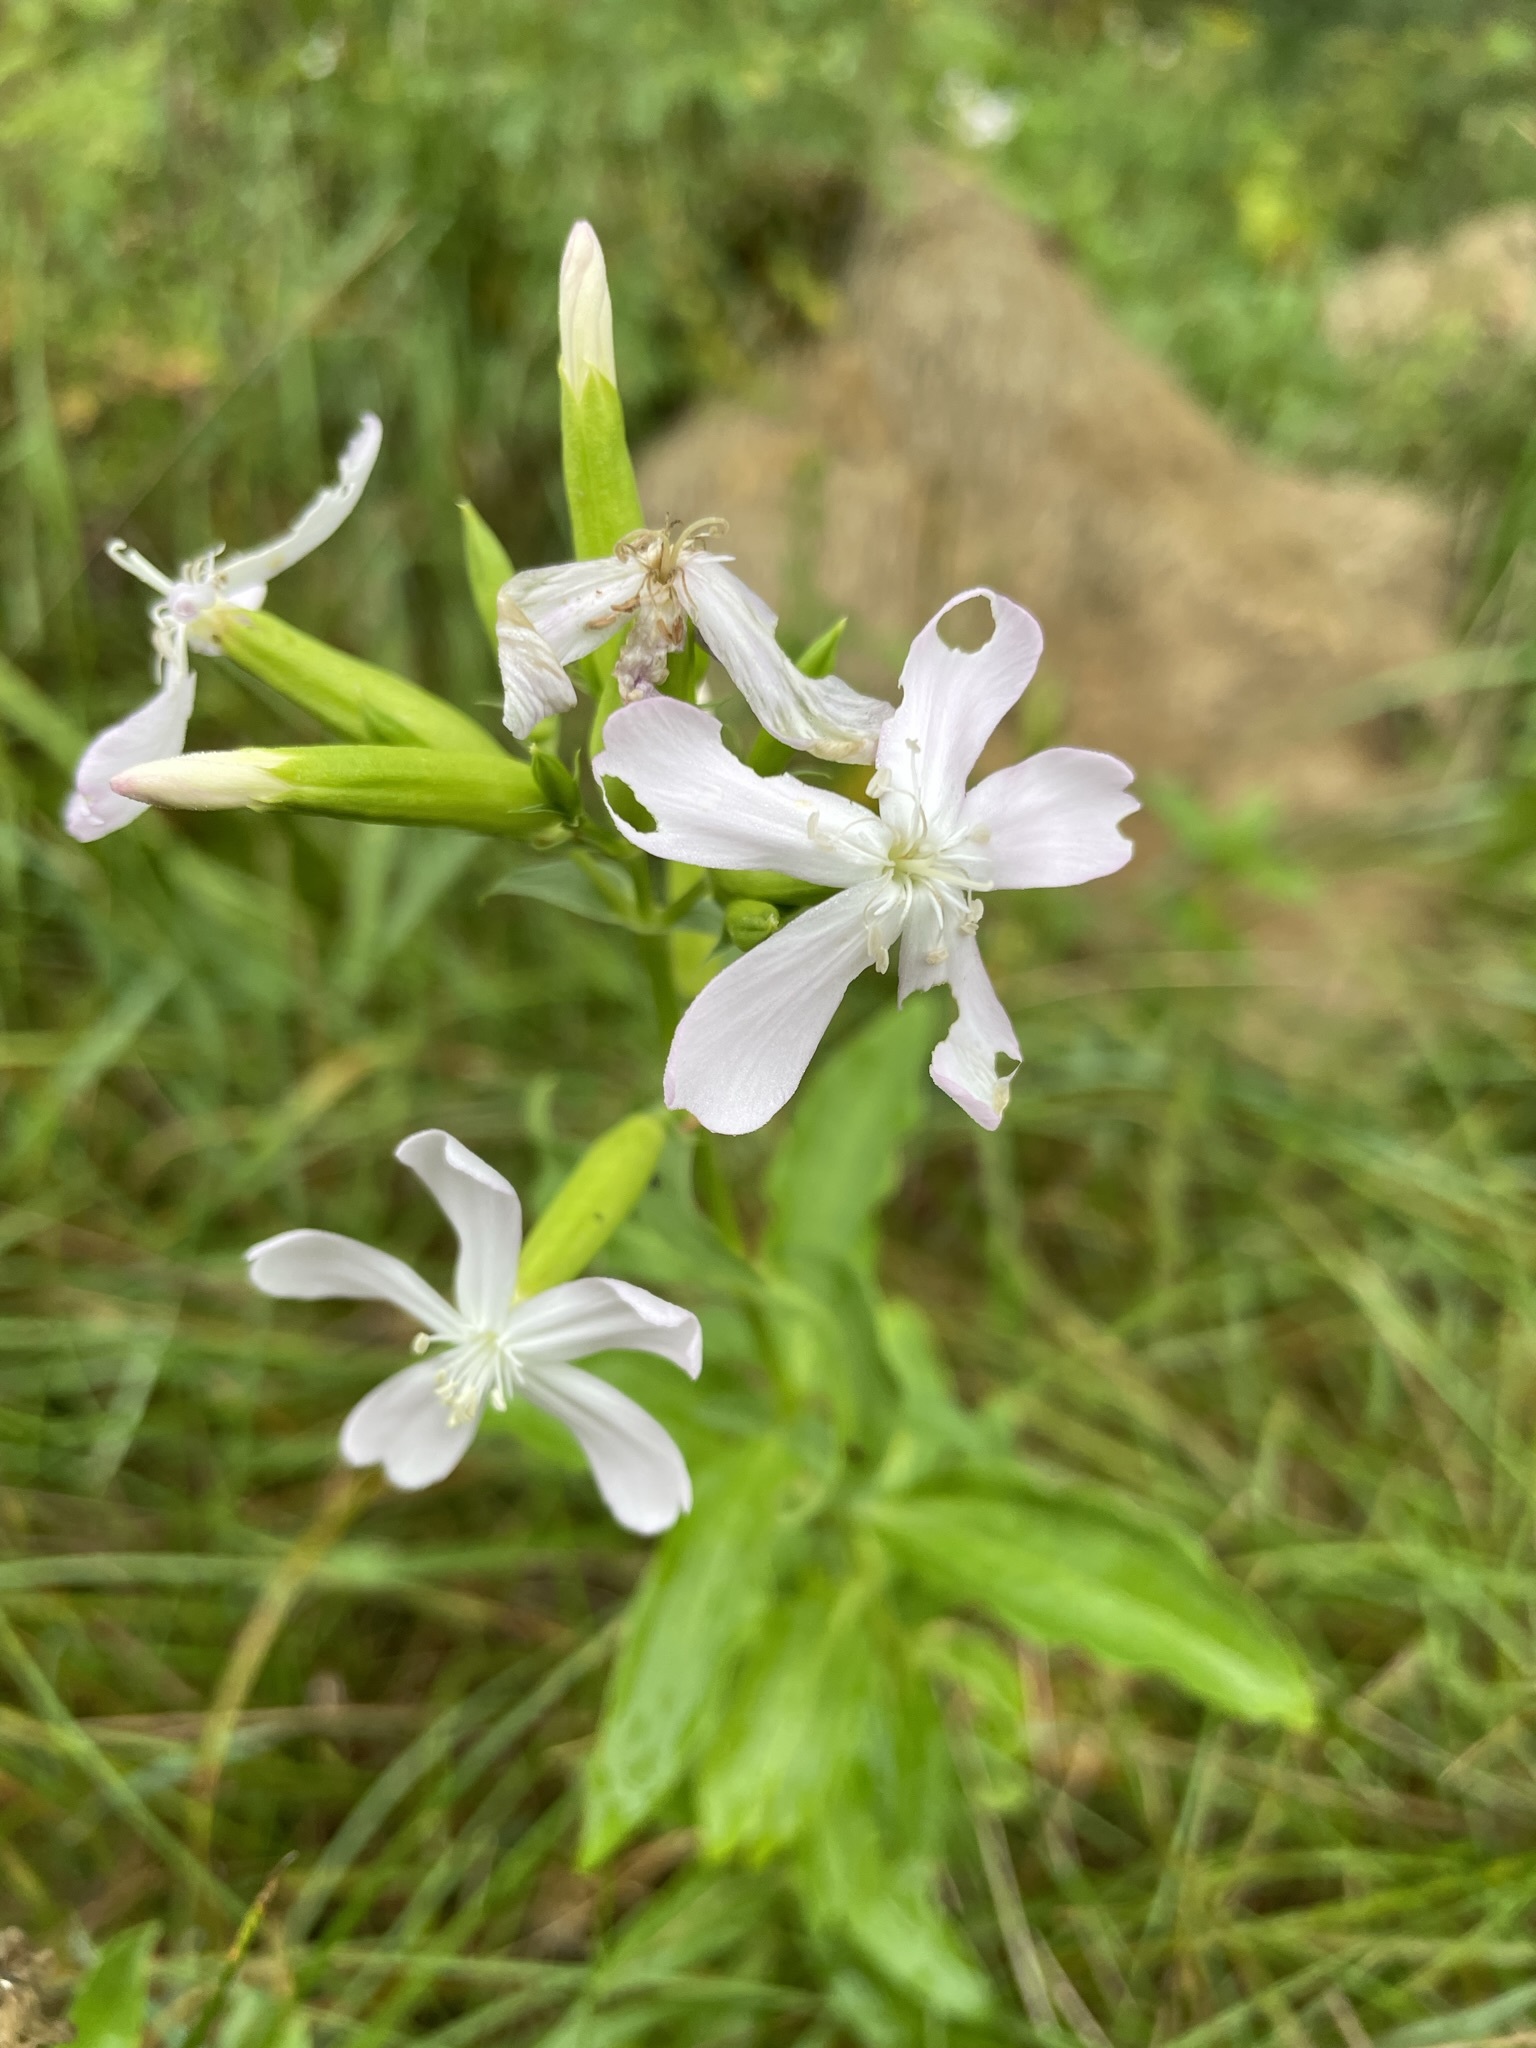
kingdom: Plantae
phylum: Tracheophyta
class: Magnoliopsida
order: Caryophyllales
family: Caryophyllaceae
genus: Saponaria
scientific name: Saponaria officinalis
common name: Soapwort
